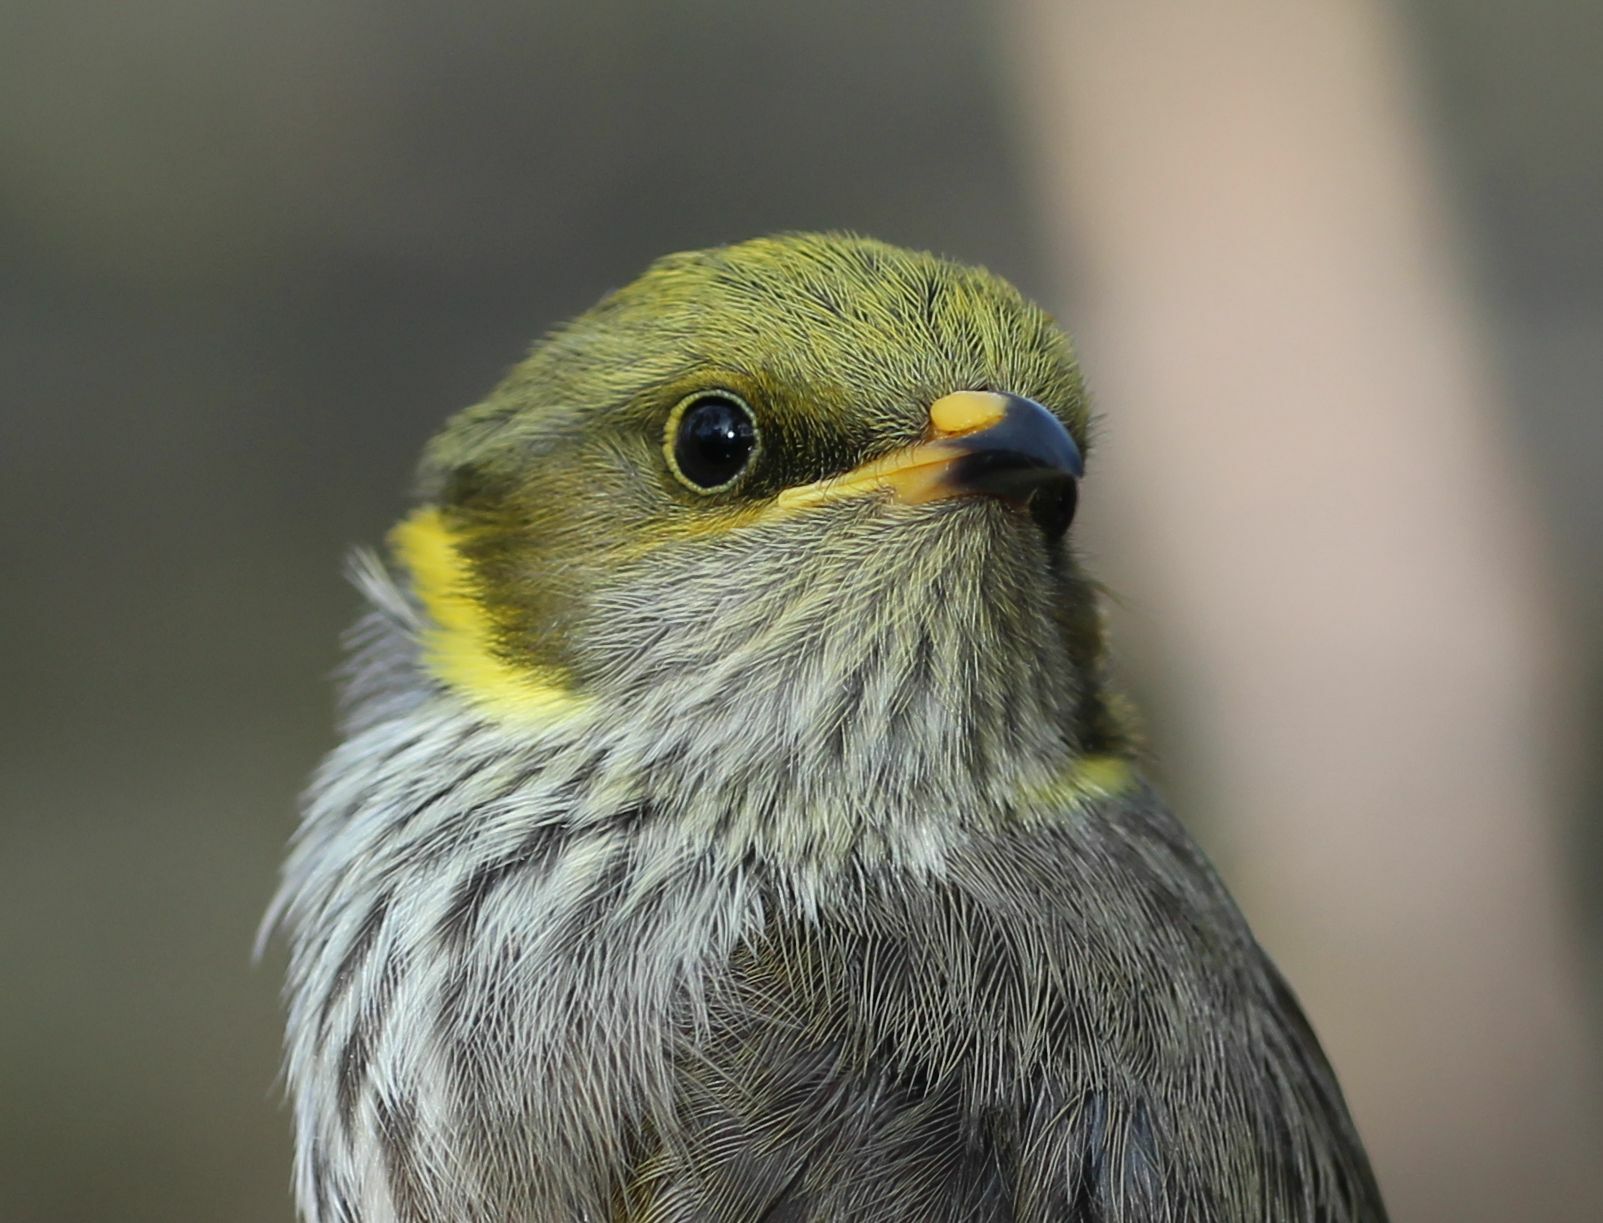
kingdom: Animalia
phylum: Chordata
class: Aves
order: Passeriformes
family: Meliphagidae
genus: Ptilotula
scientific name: Ptilotula ornata
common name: Yellow-plumed honeyeater
